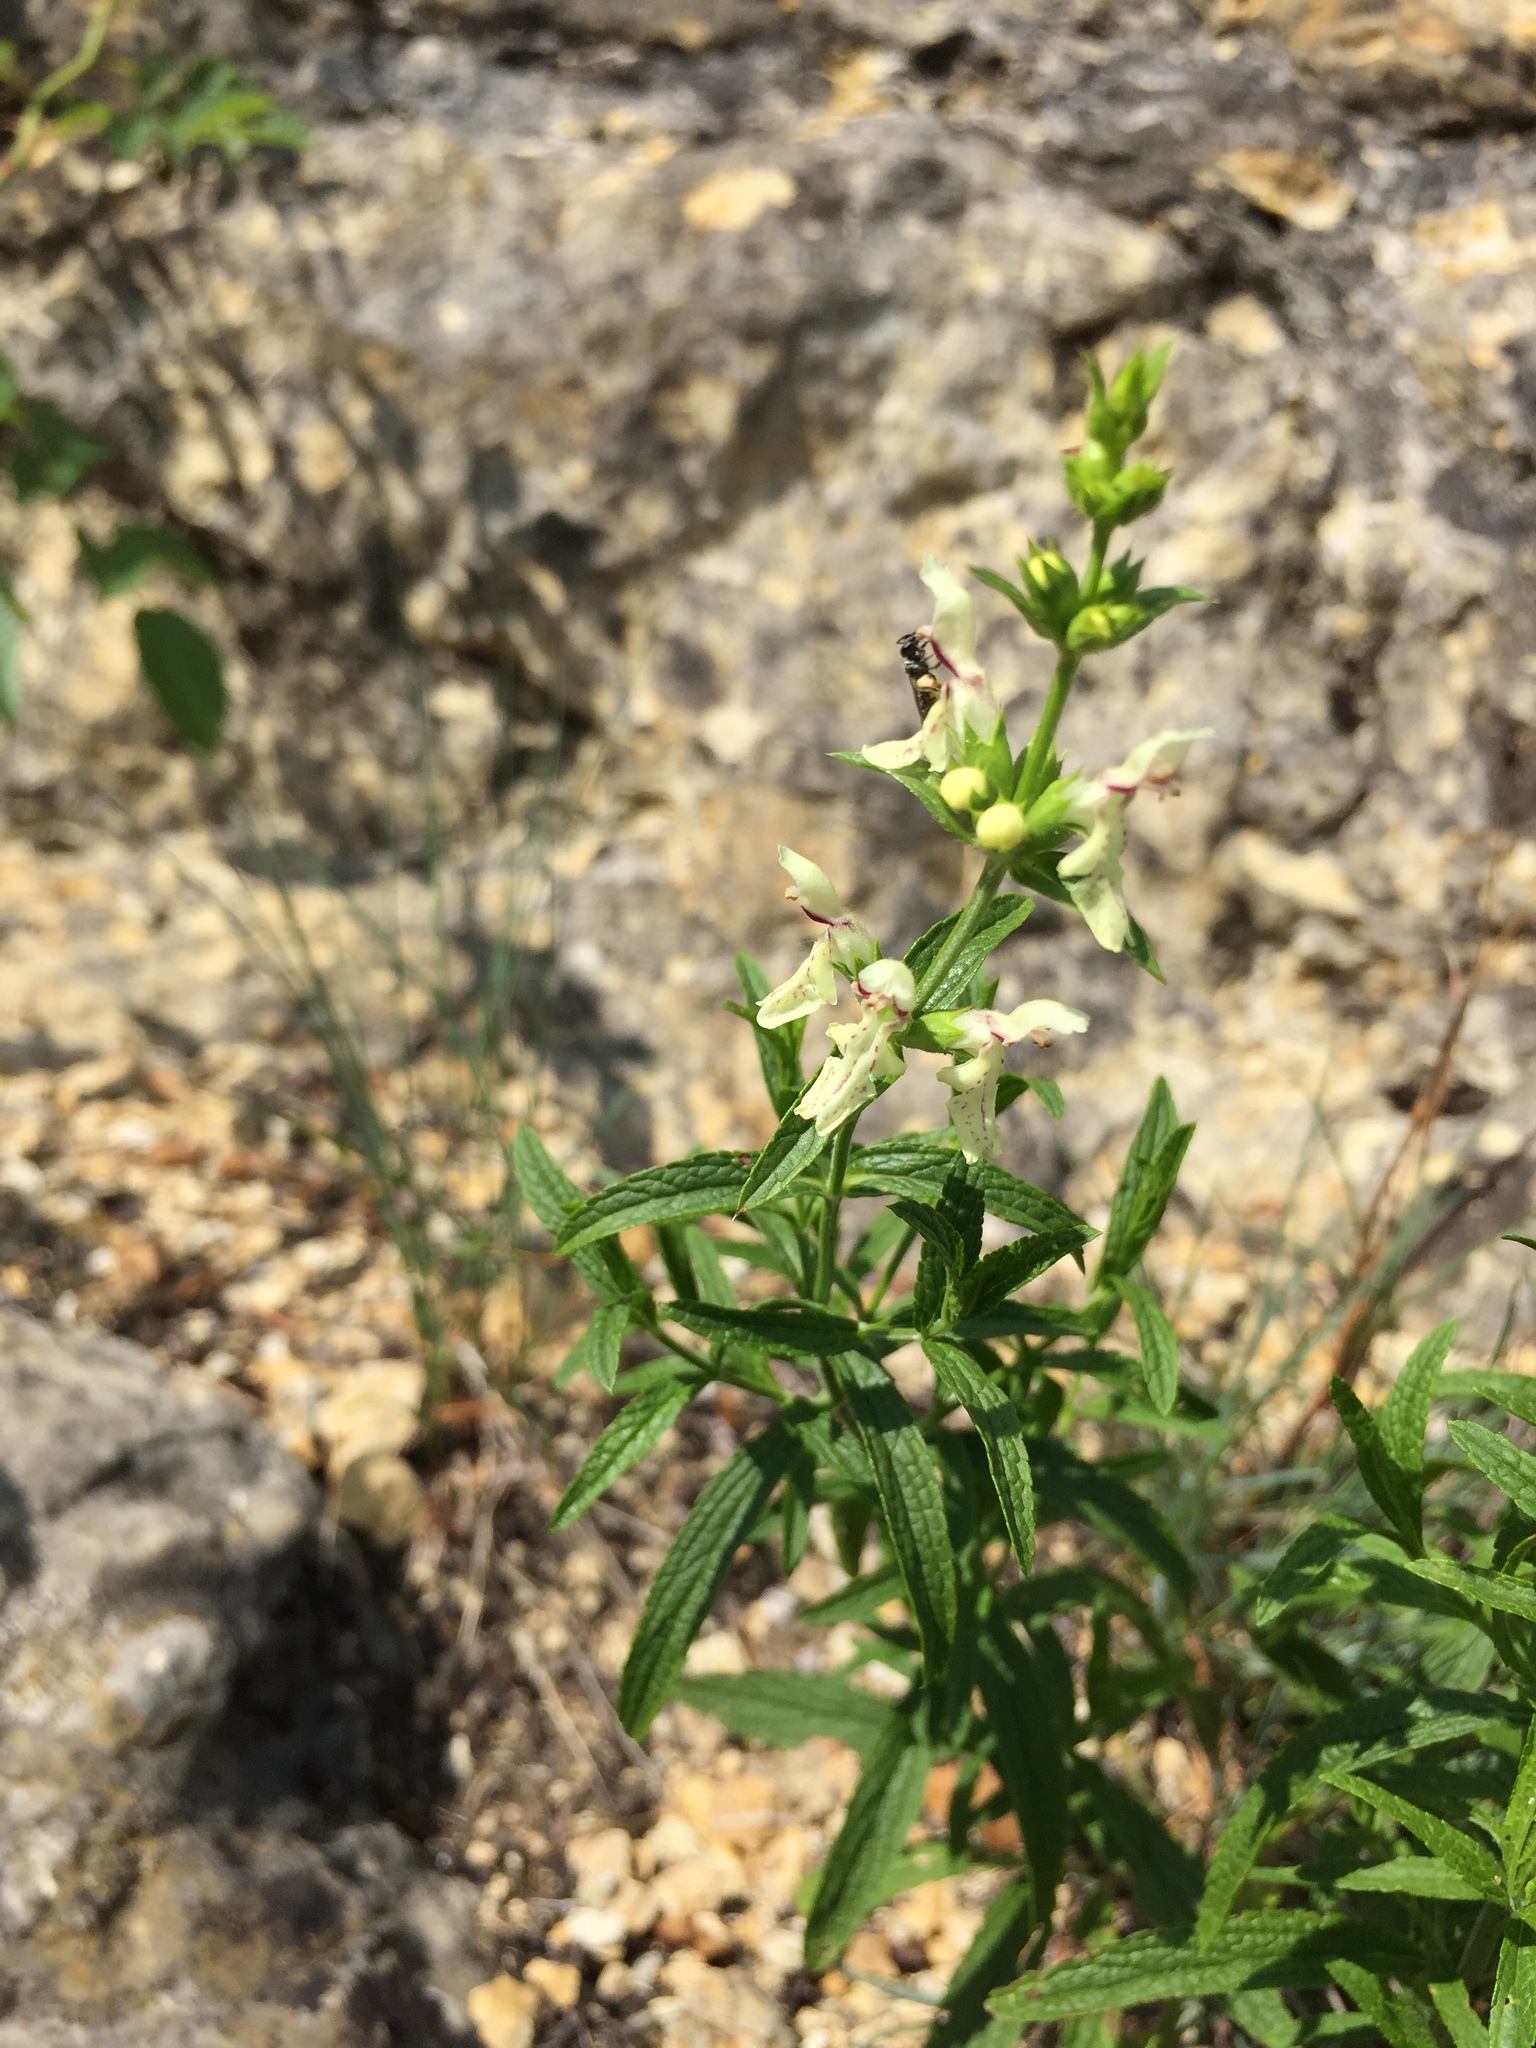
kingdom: Plantae
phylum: Tracheophyta
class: Magnoliopsida
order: Lamiales
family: Lamiaceae
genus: Stachys
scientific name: Stachys recta
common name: Perennial yellow-woundwort
